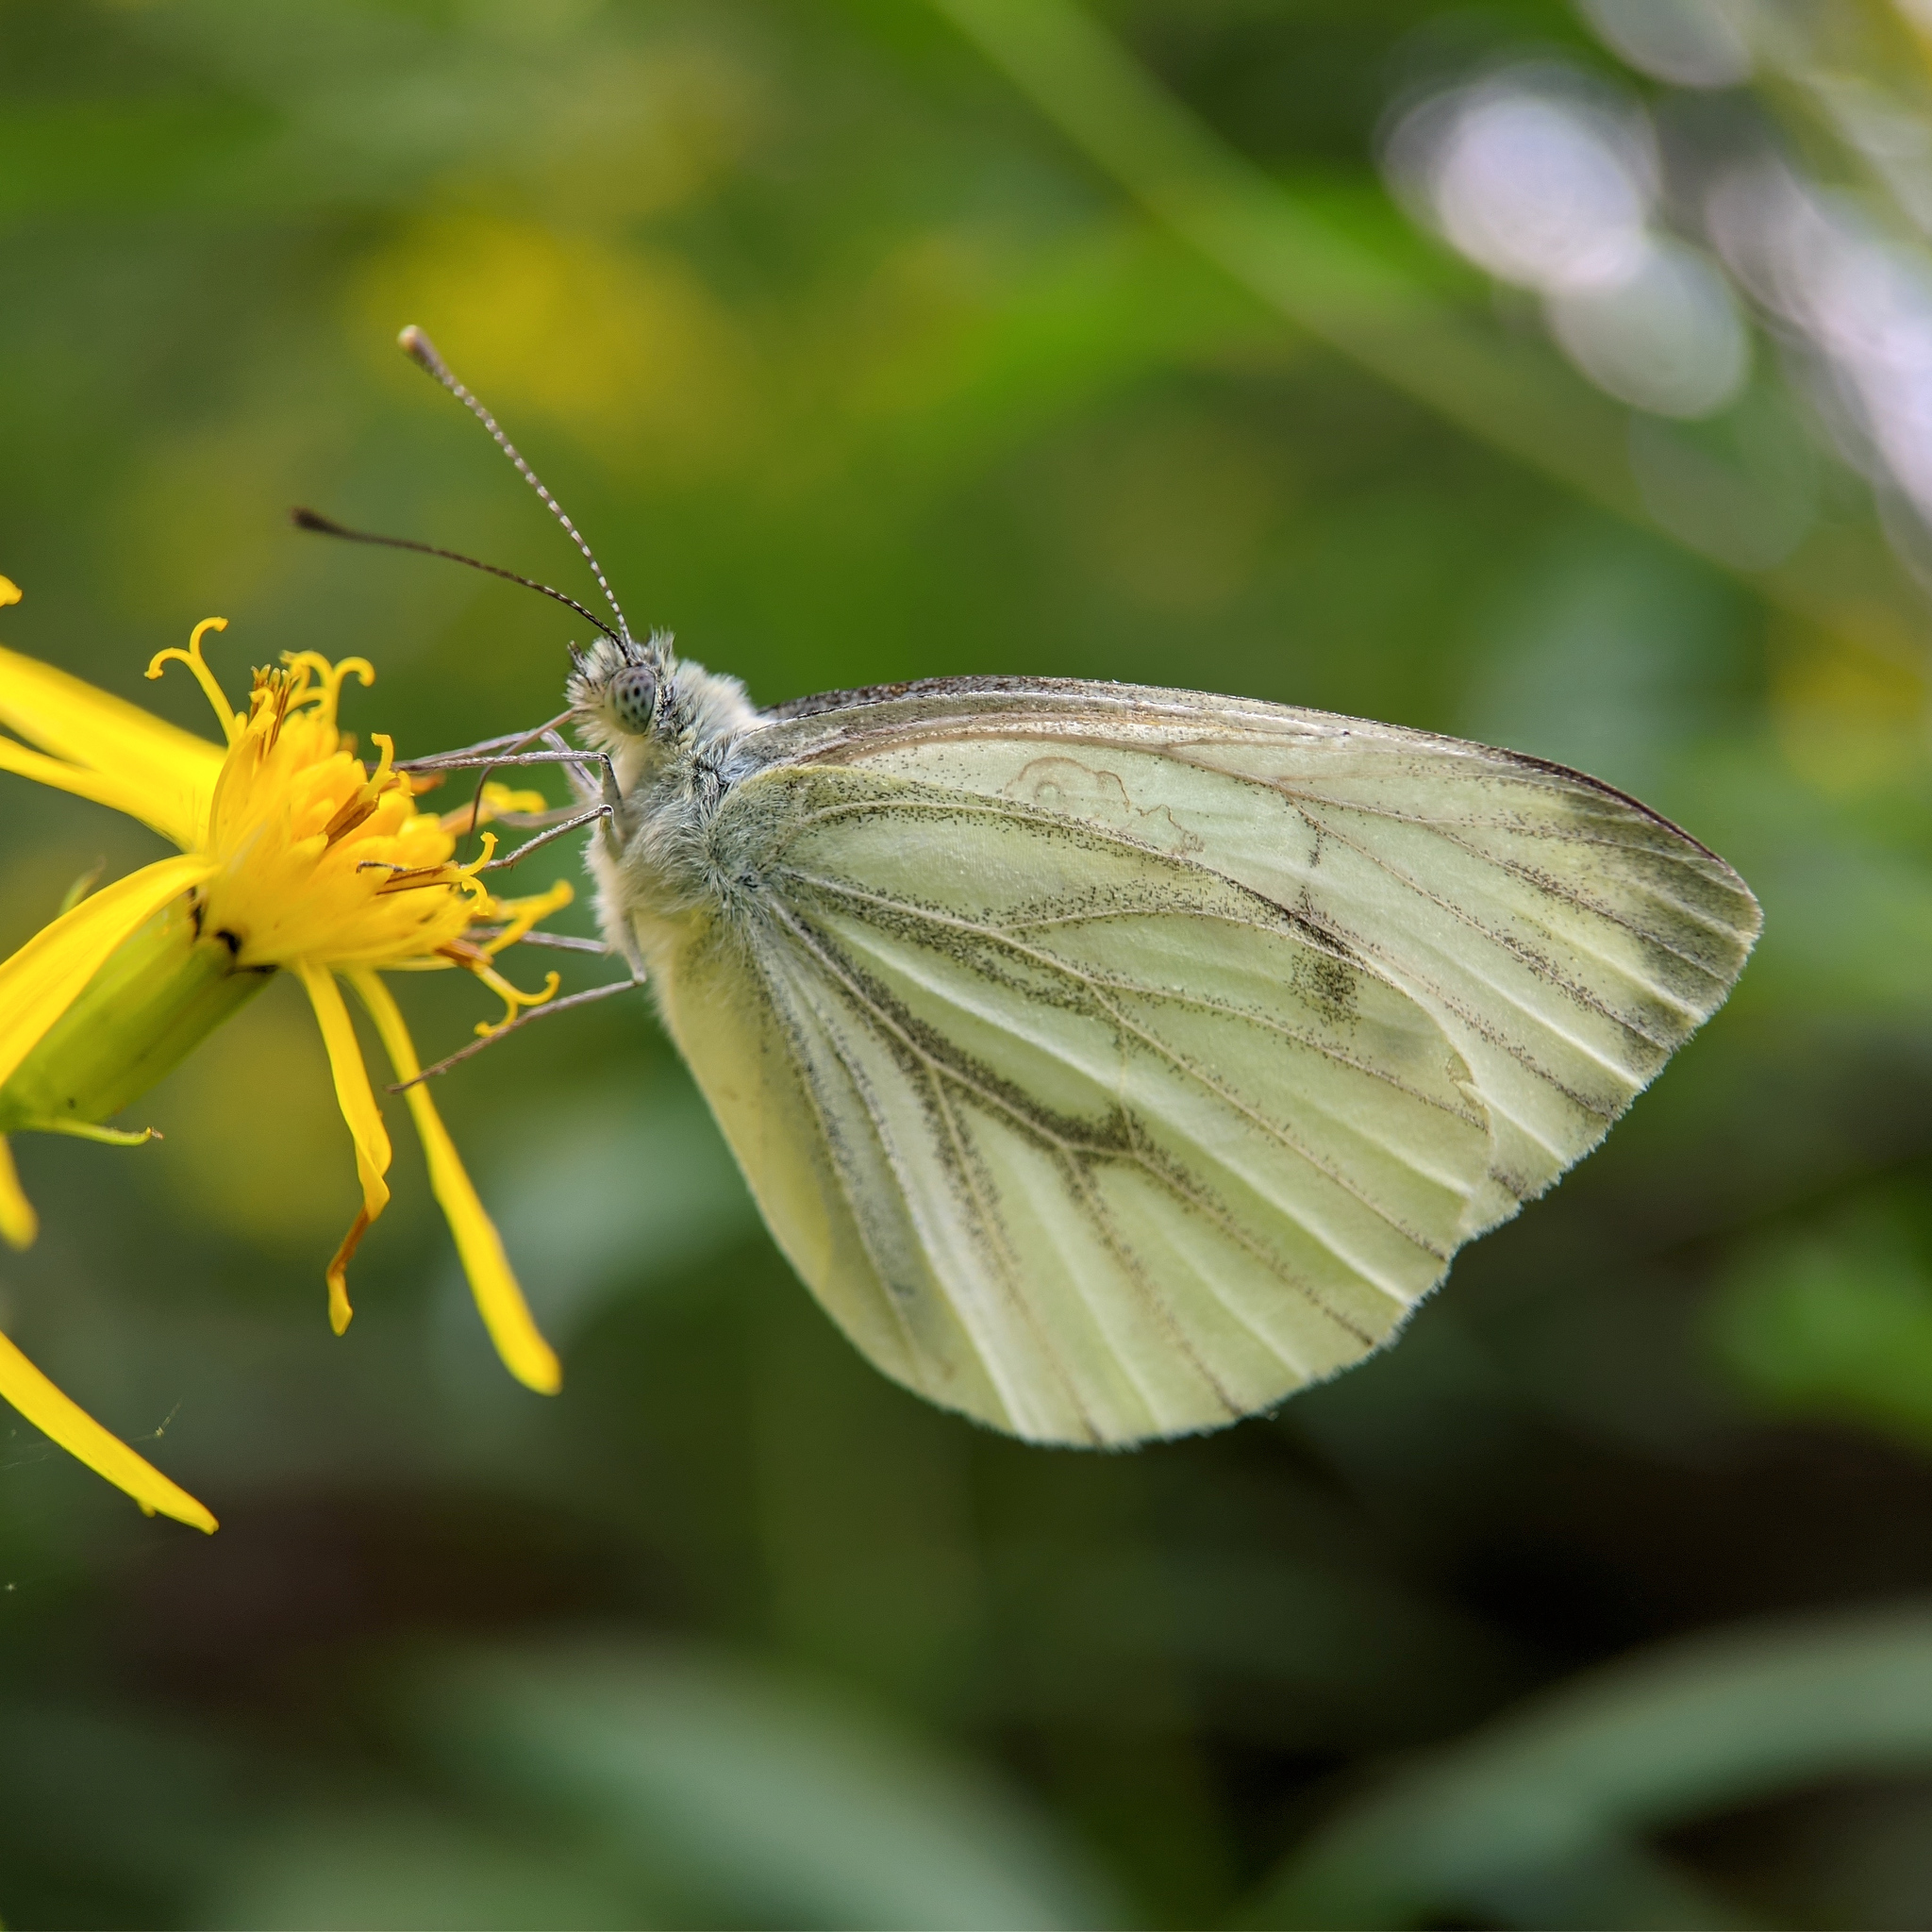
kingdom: Animalia
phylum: Arthropoda
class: Insecta
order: Lepidoptera
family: Pieridae
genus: Pieris
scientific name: Pieris napi
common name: Green-veined white
